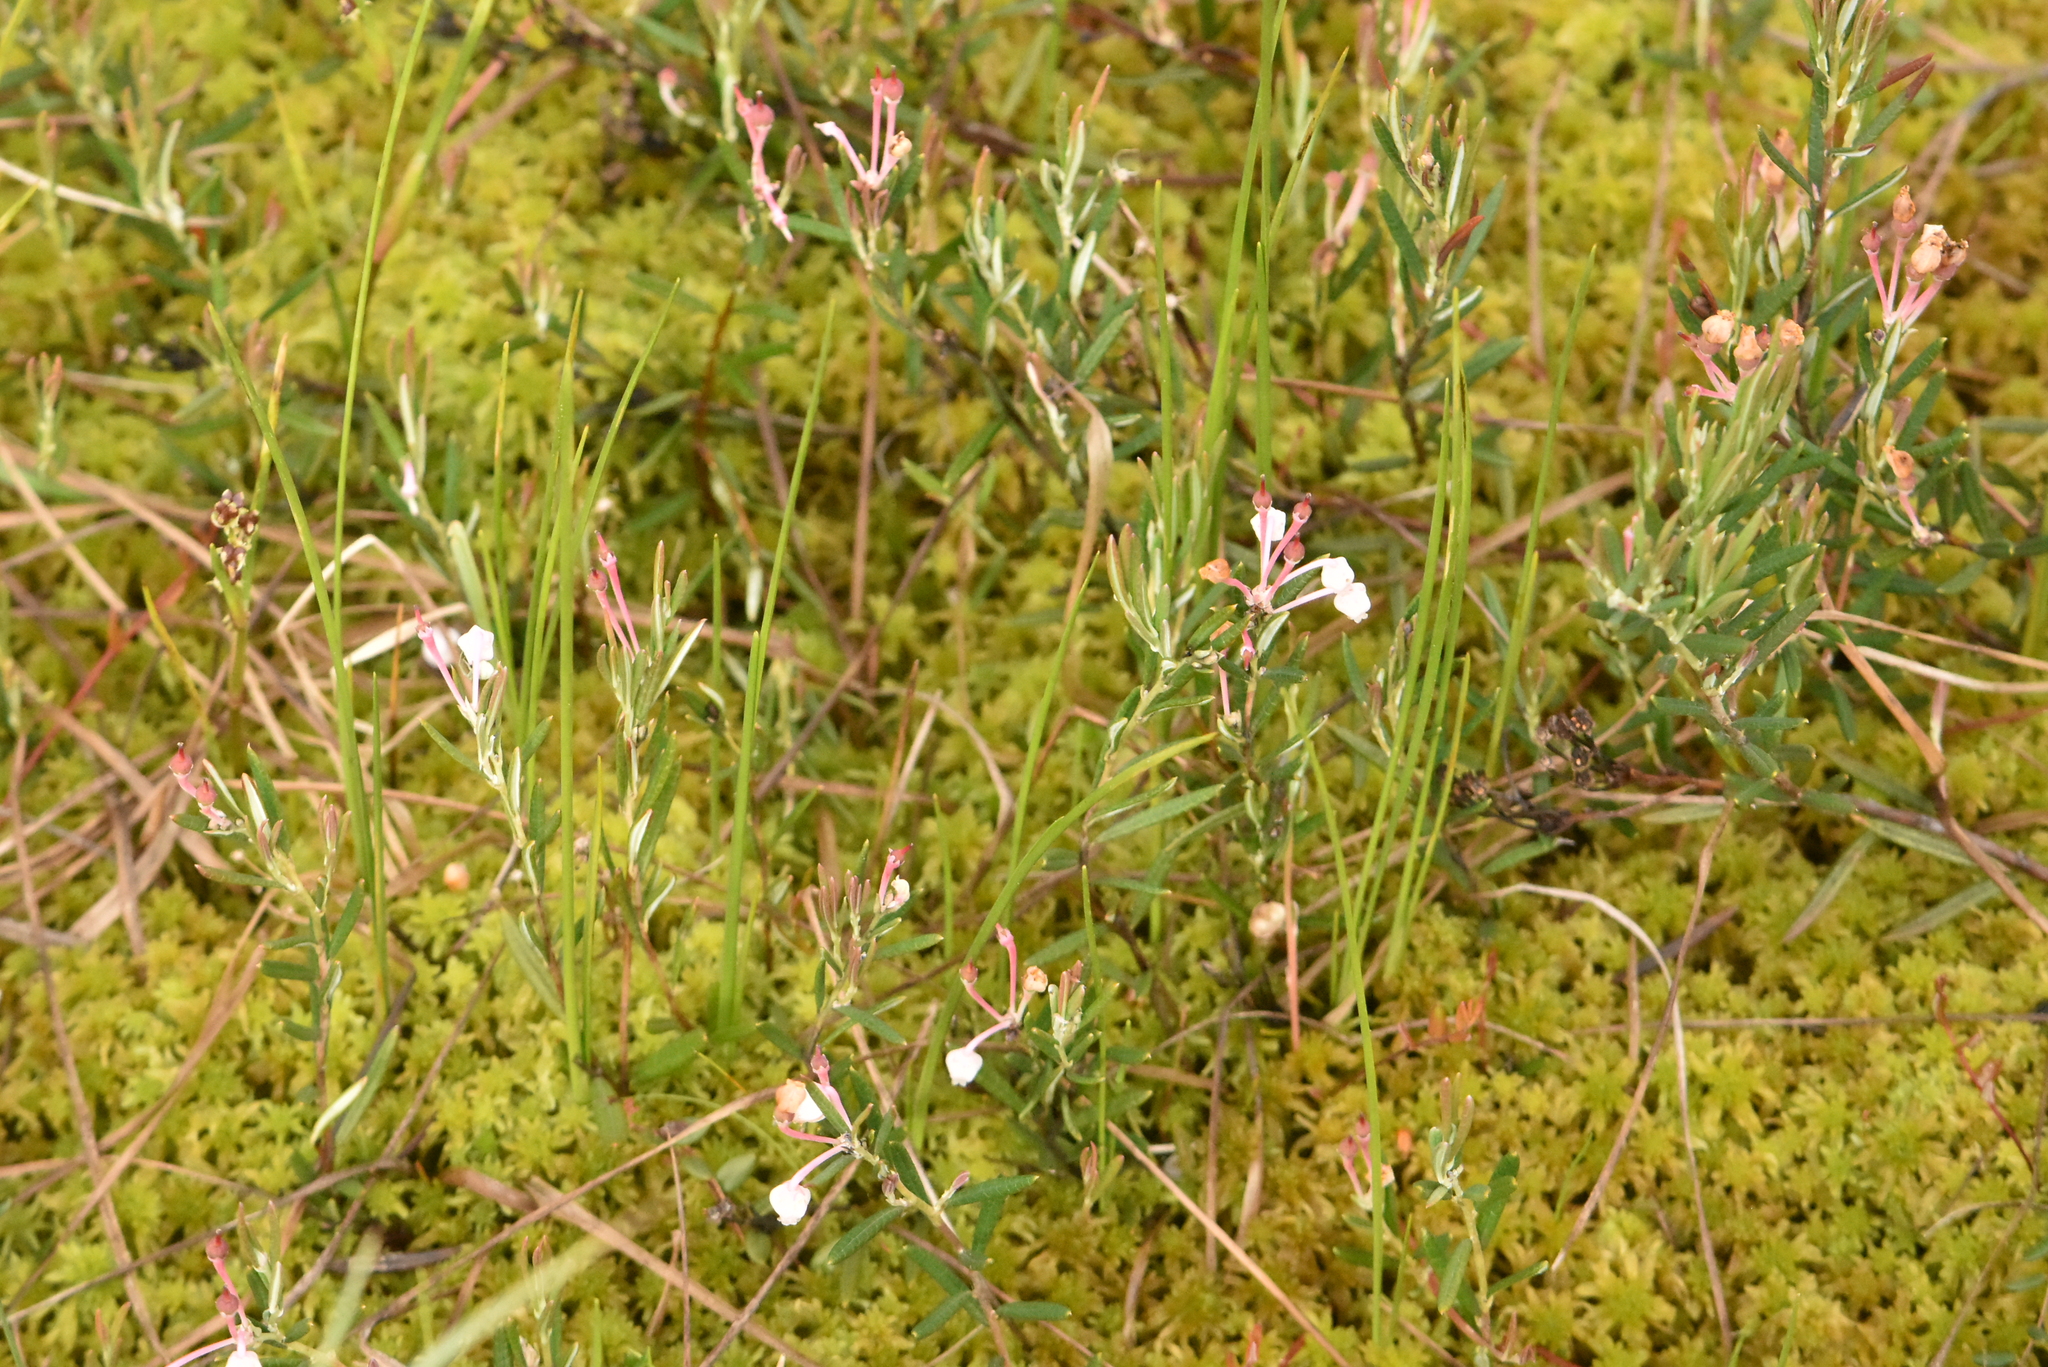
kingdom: Plantae
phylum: Tracheophyta
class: Magnoliopsida
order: Ericales
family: Ericaceae
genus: Andromeda
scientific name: Andromeda polifolia
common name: Bog-rosemary
